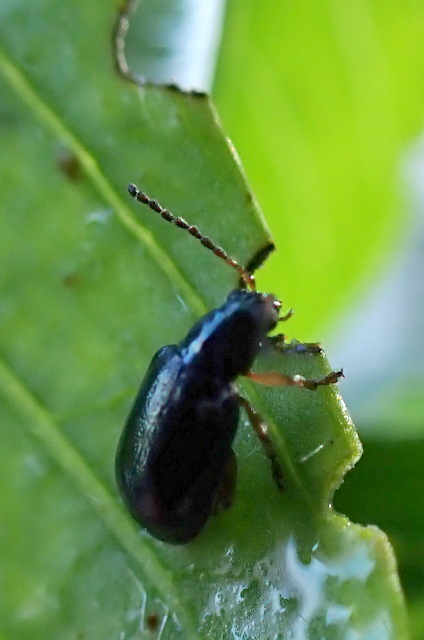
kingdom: Animalia
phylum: Arthropoda
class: Insecta
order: Coleoptera
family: Chrysomelidae
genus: Lysathia
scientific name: Lysathia ludoviciana
